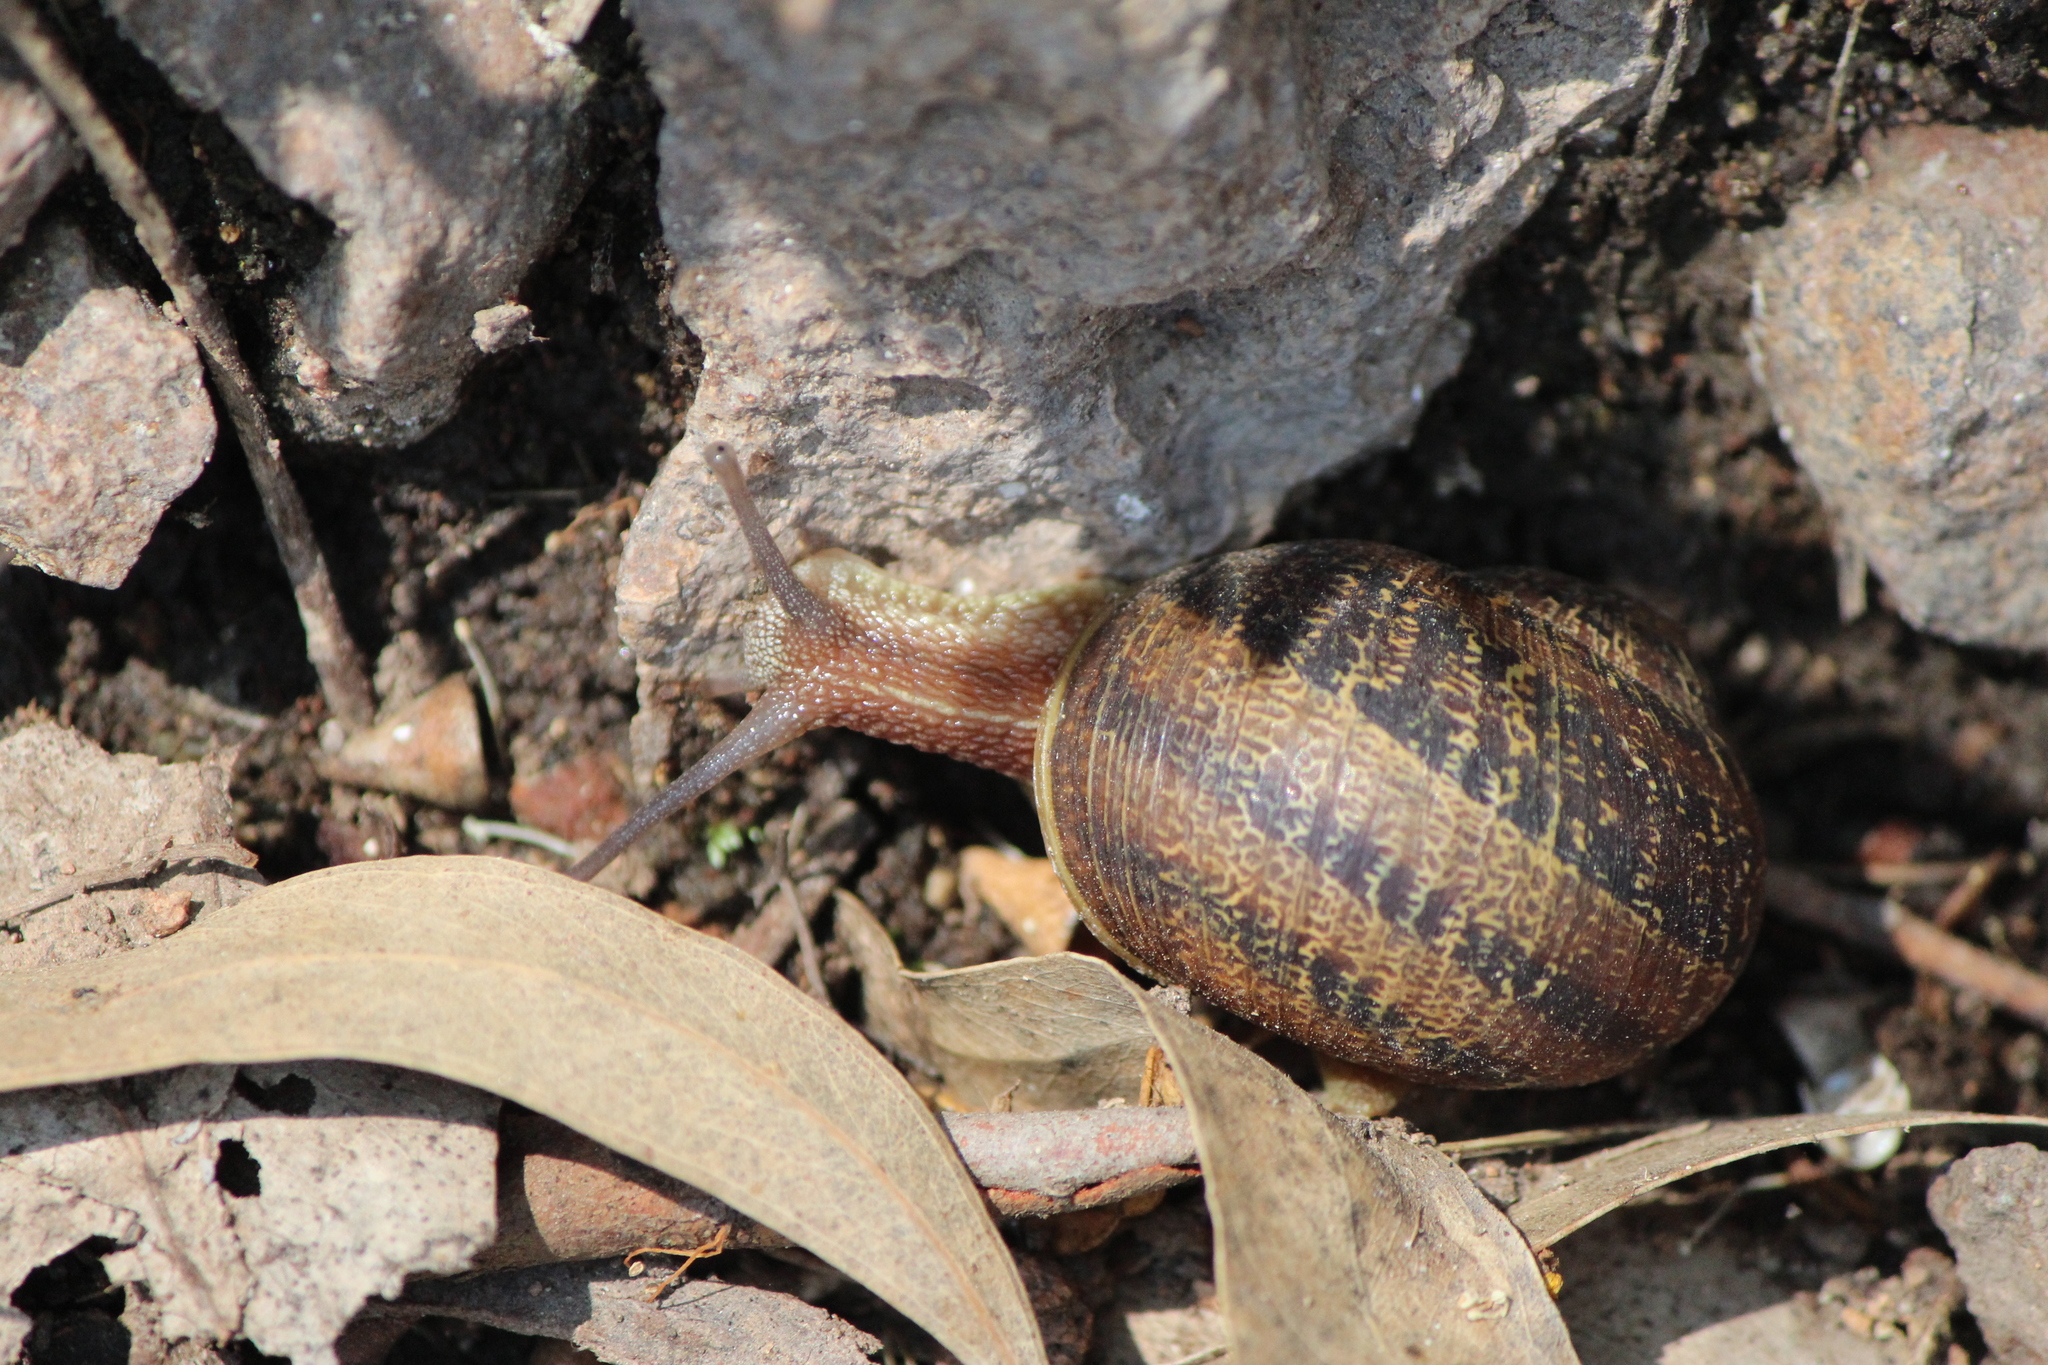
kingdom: Animalia
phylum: Mollusca
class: Gastropoda
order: Stylommatophora
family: Helicidae
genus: Cornu
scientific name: Cornu aspersum
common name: Brown garden snail
